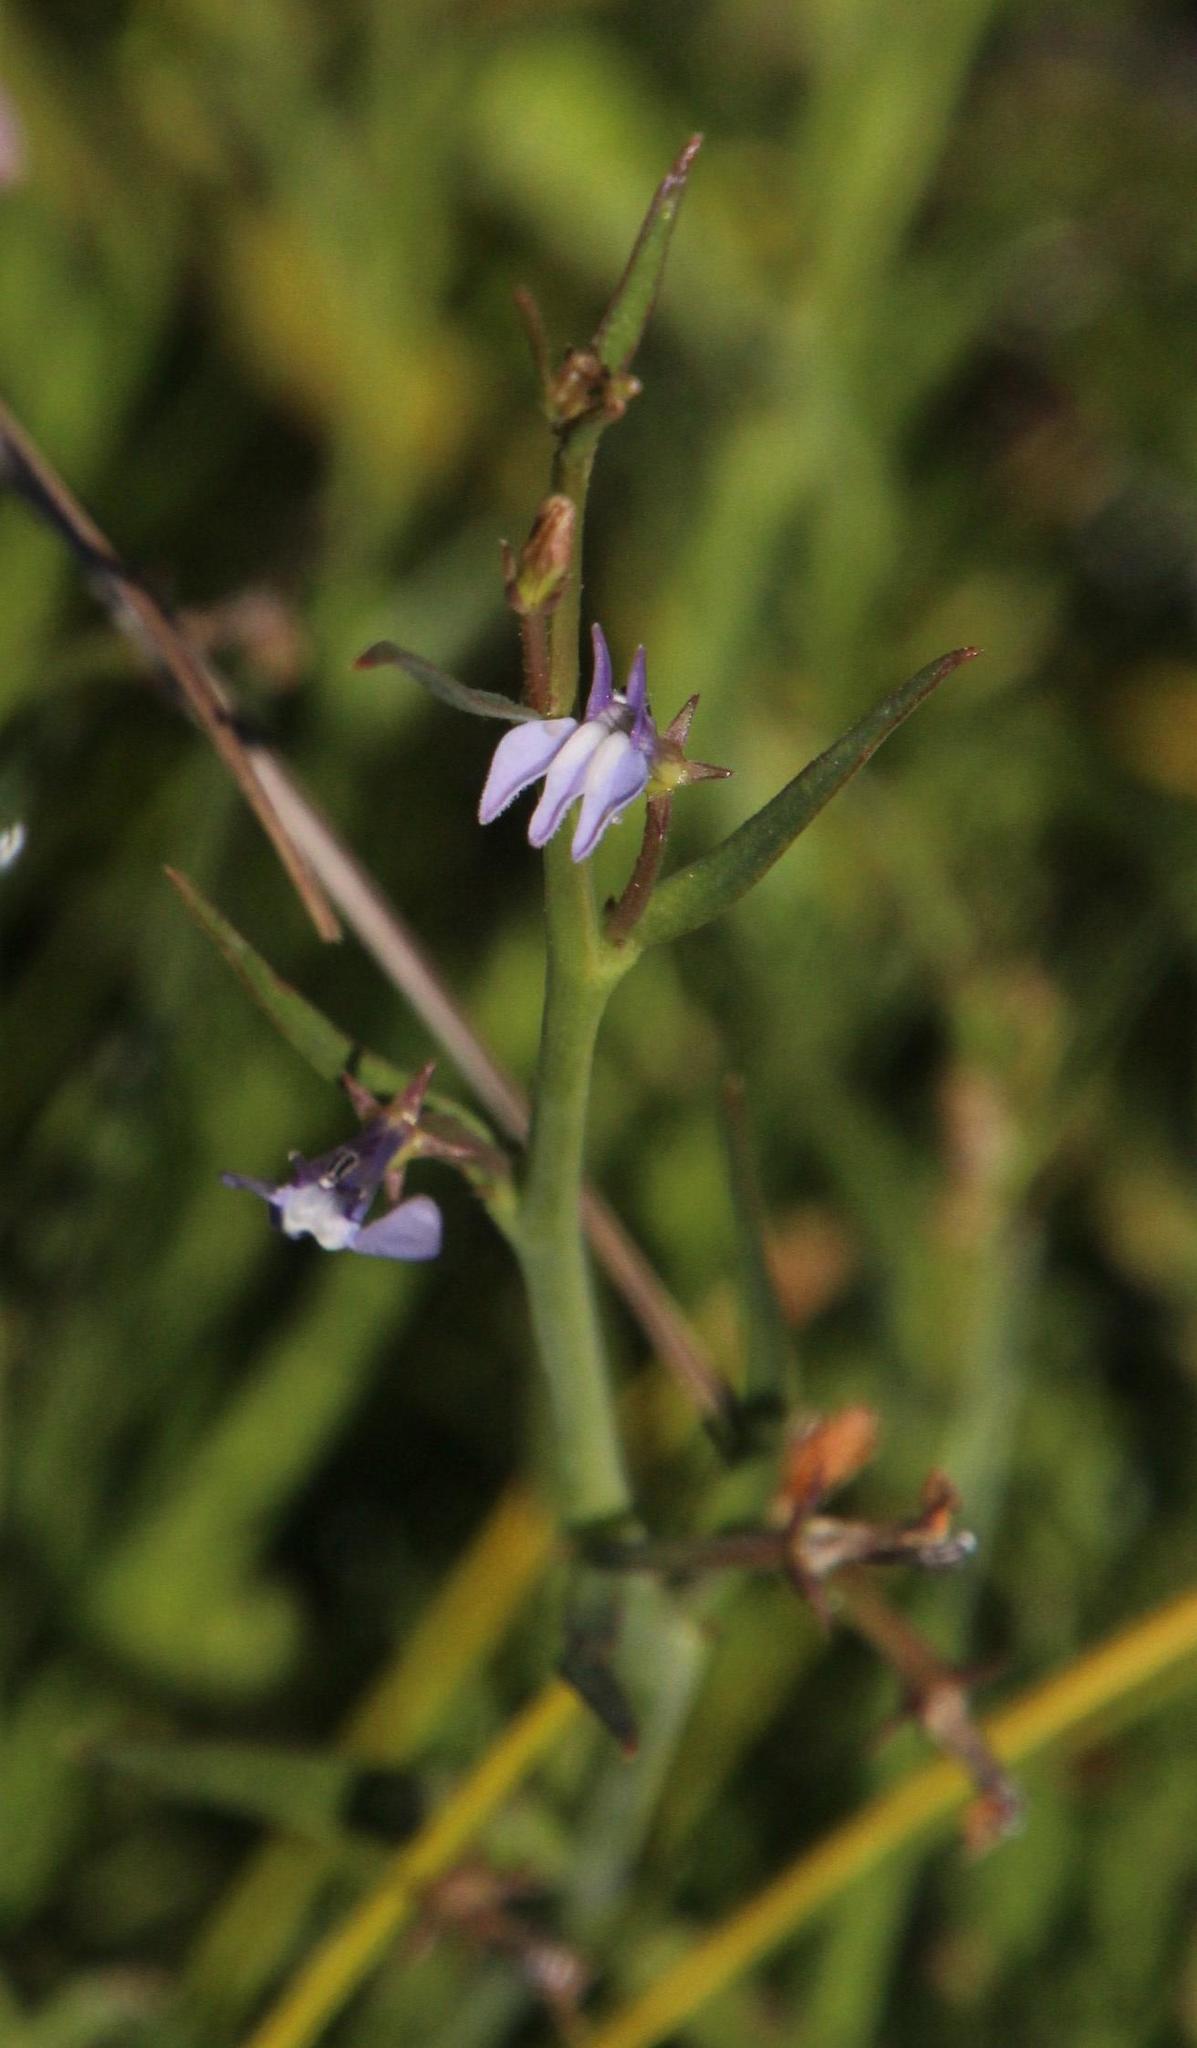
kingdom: Plantae
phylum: Tracheophyta
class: Magnoliopsida
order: Asterales
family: Campanulaceae
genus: Grammatotheca
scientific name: Grammatotheca bergiana
